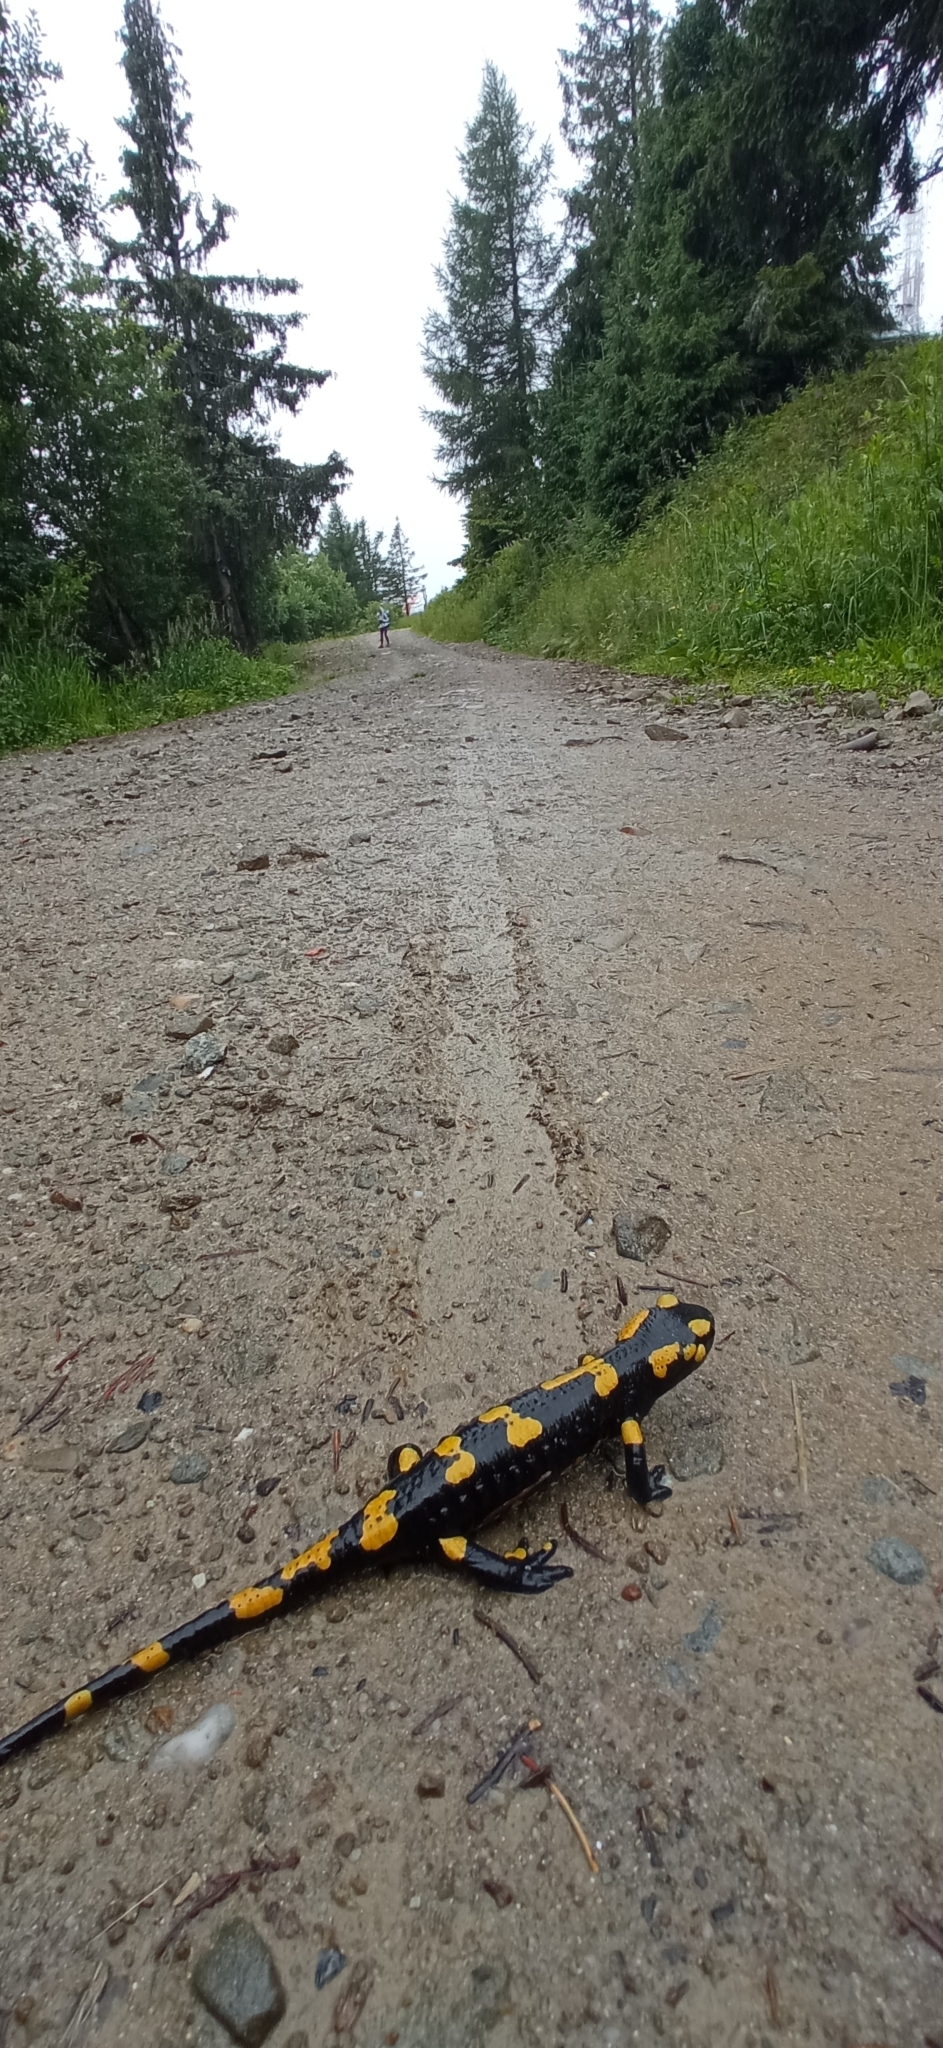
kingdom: Animalia
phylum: Chordata
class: Amphibia
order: Caudata
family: Salamandridae
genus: Salamandra
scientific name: Salamandra salamandra
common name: Fire salamander
